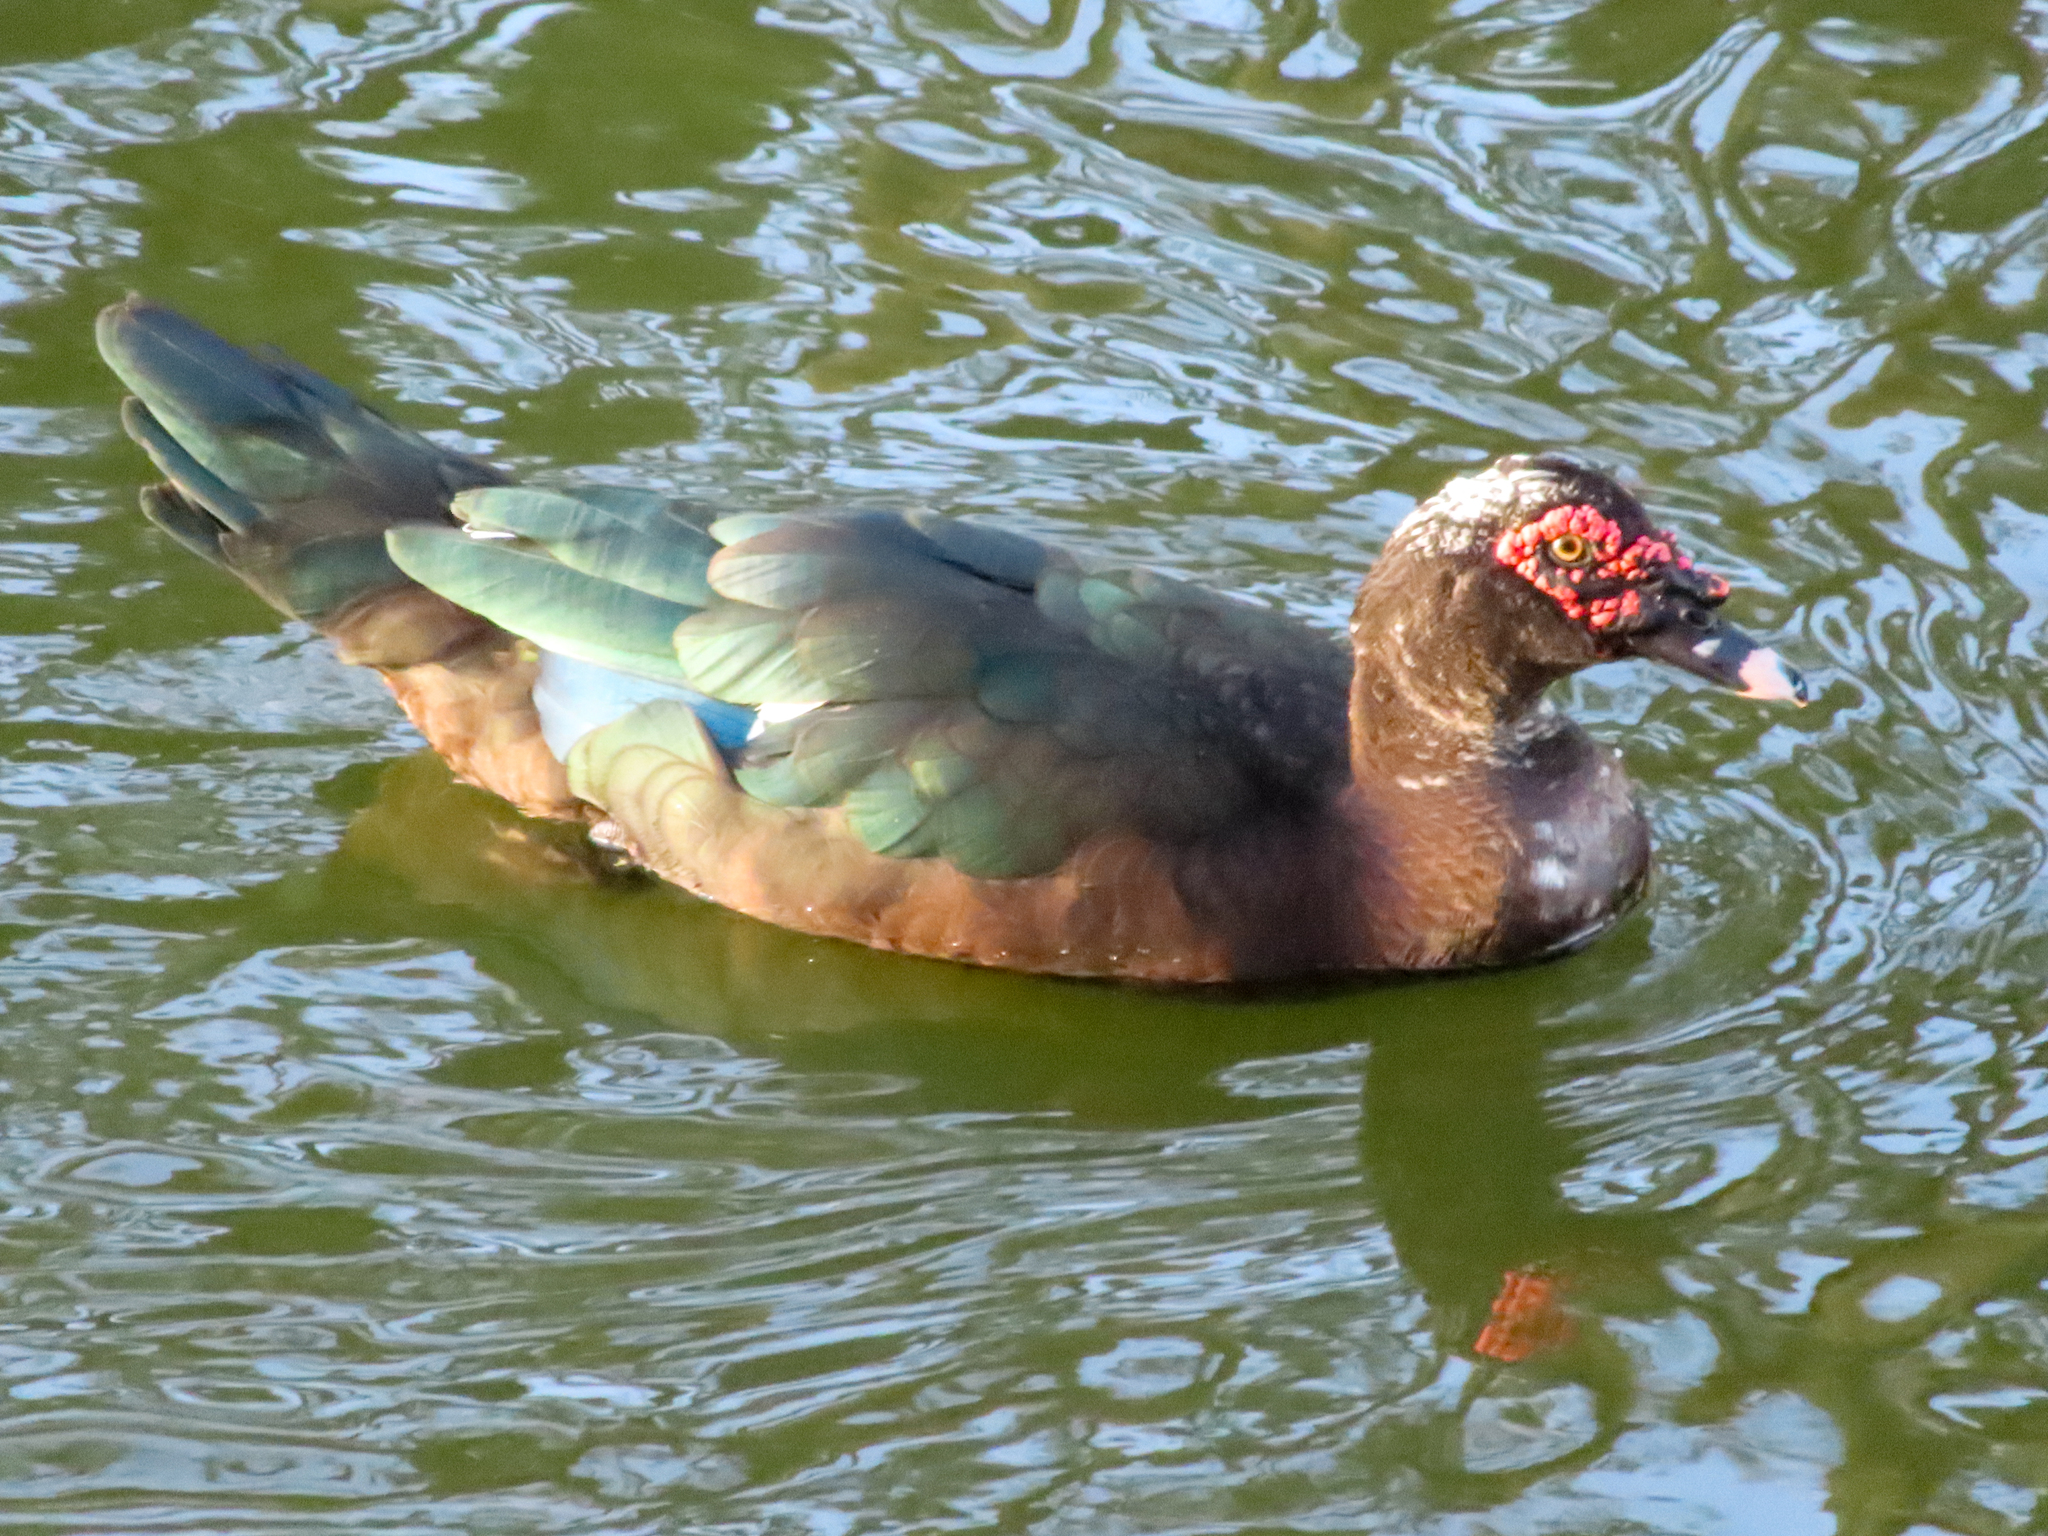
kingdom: Animalia
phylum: Chordata
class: Aves
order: Anseriformes
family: Anatidae
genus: Cairina
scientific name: Cairina moschata
